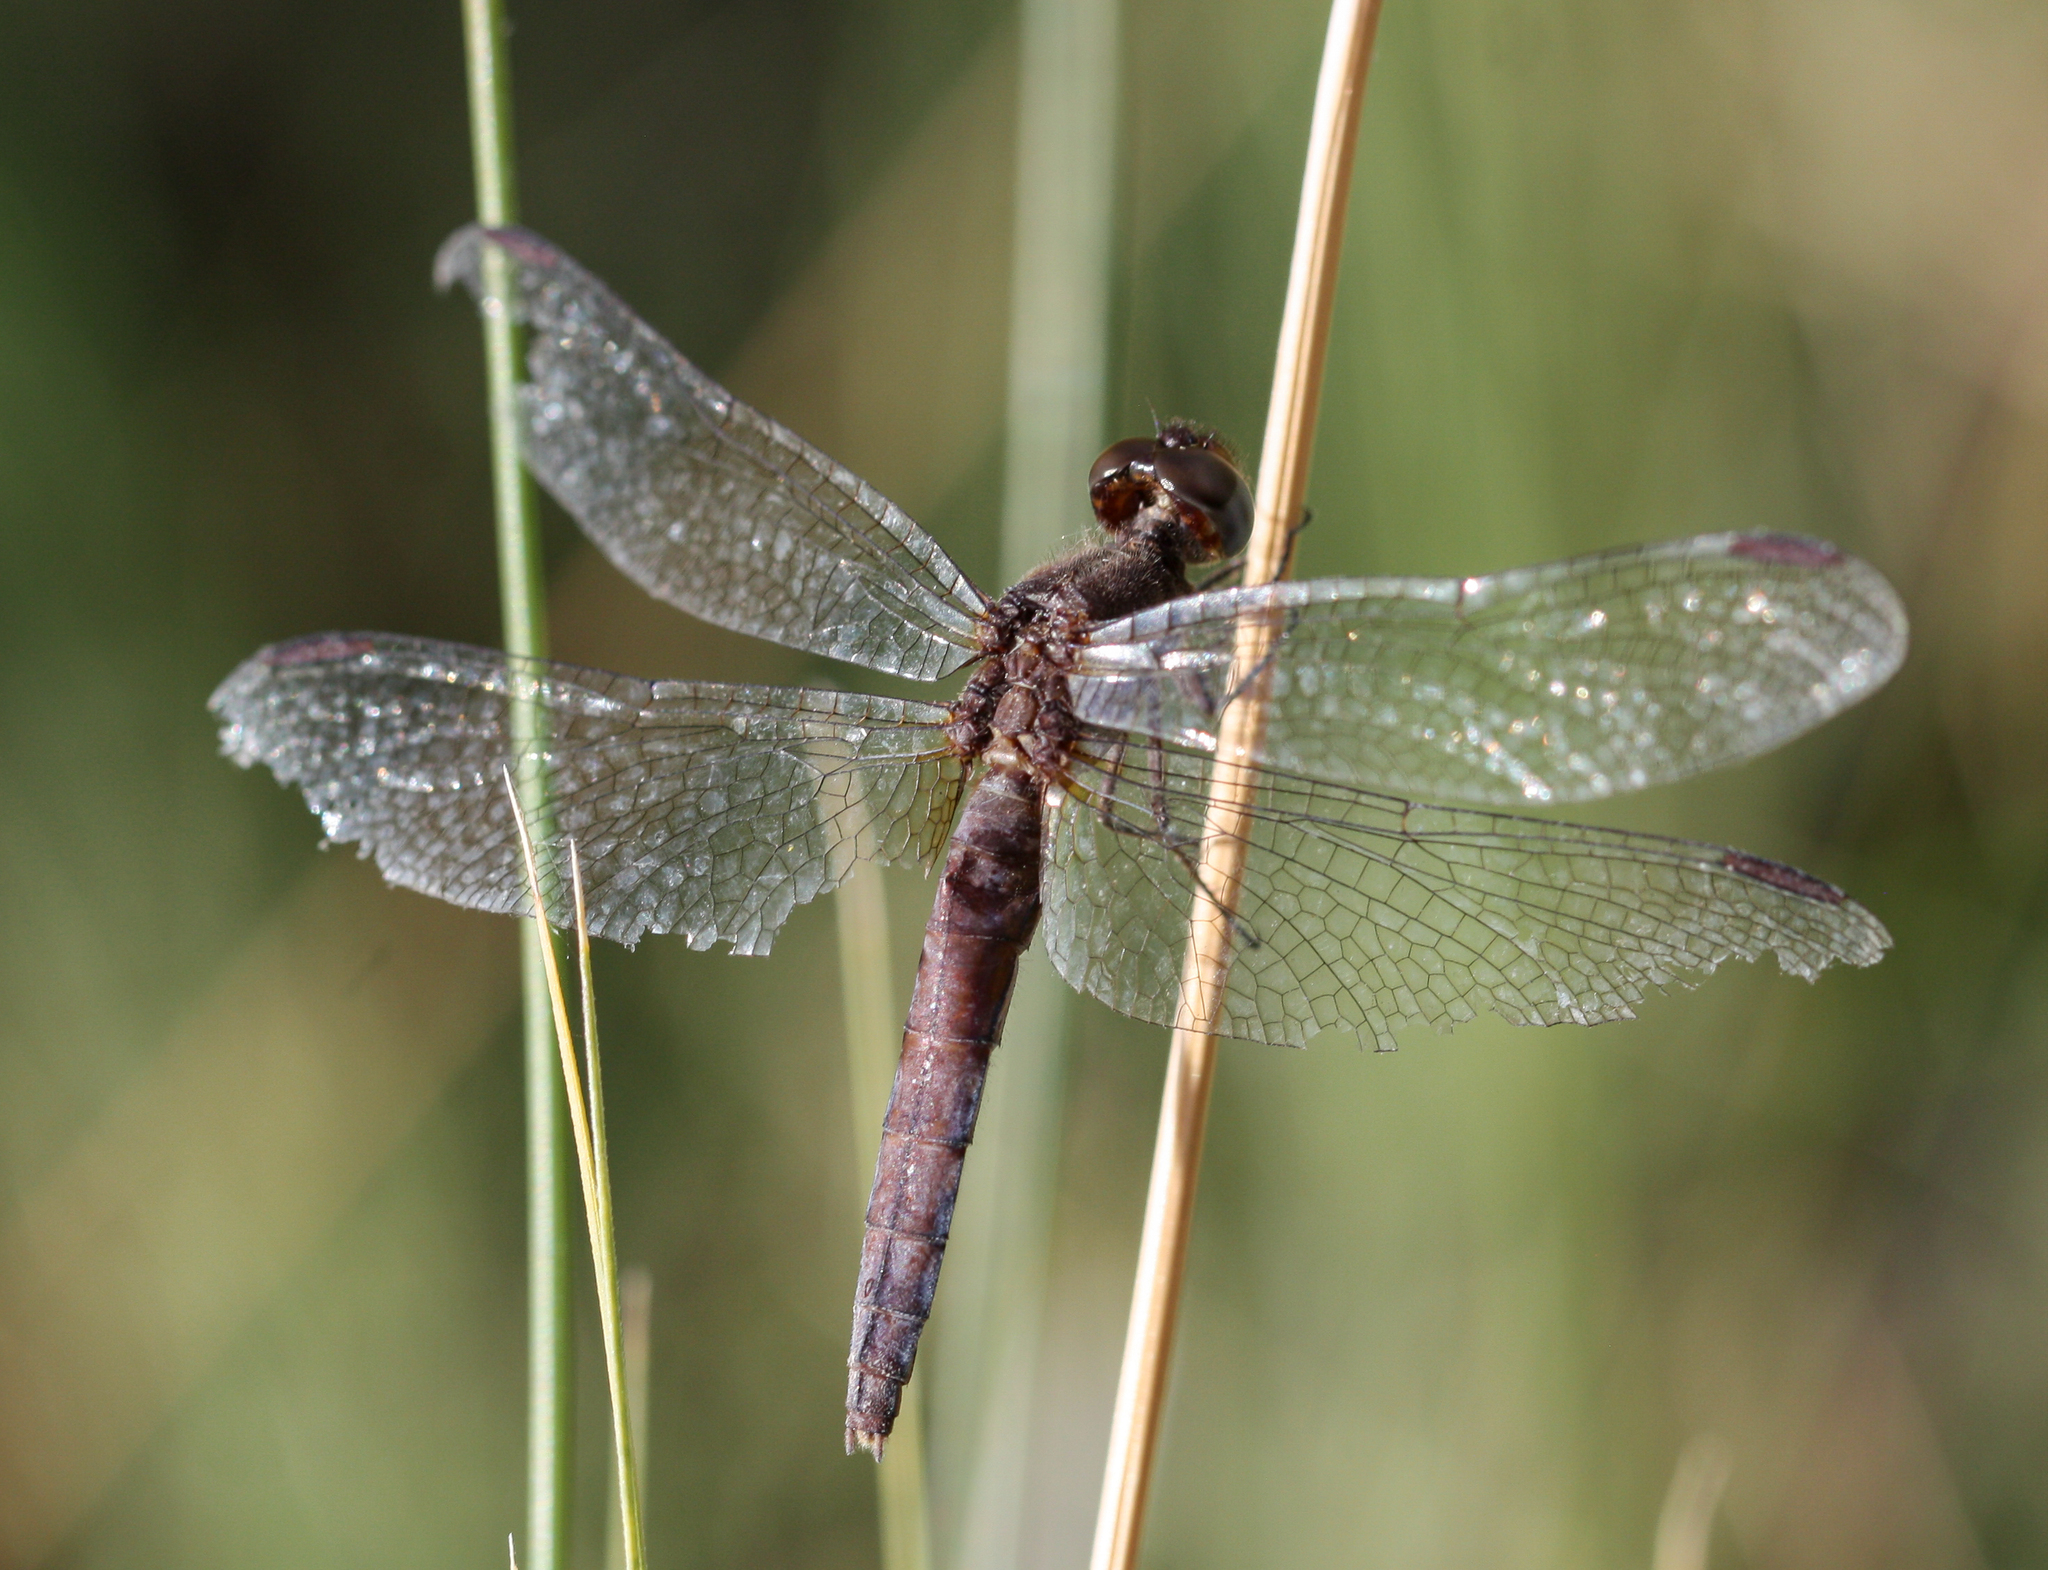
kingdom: Animalia
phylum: Arthropoda
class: Insecta
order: Odonata
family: Libellulidae
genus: Erythrodiplax
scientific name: Erythrodiplax basifusca
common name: Plateau dragonlet
